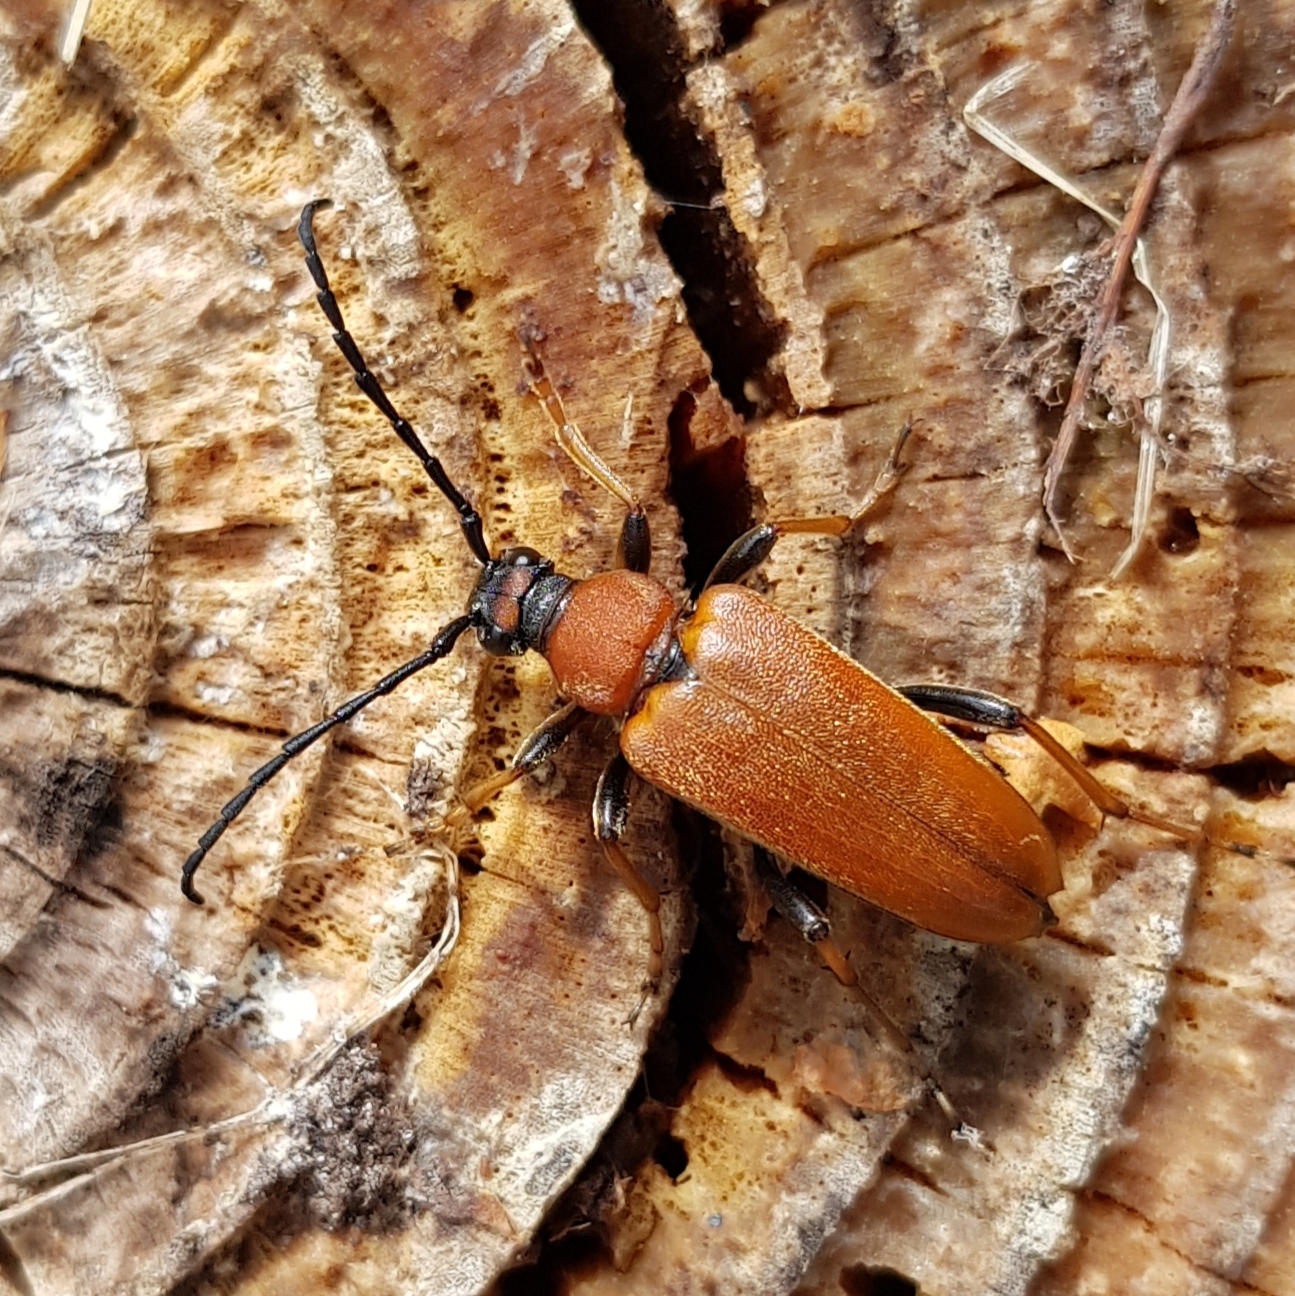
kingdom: Animalia
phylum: Arthropoda
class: Insecta
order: Coleoptera
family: Cerambycidae
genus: Stictoleptura
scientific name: Stictoleptura rubra
